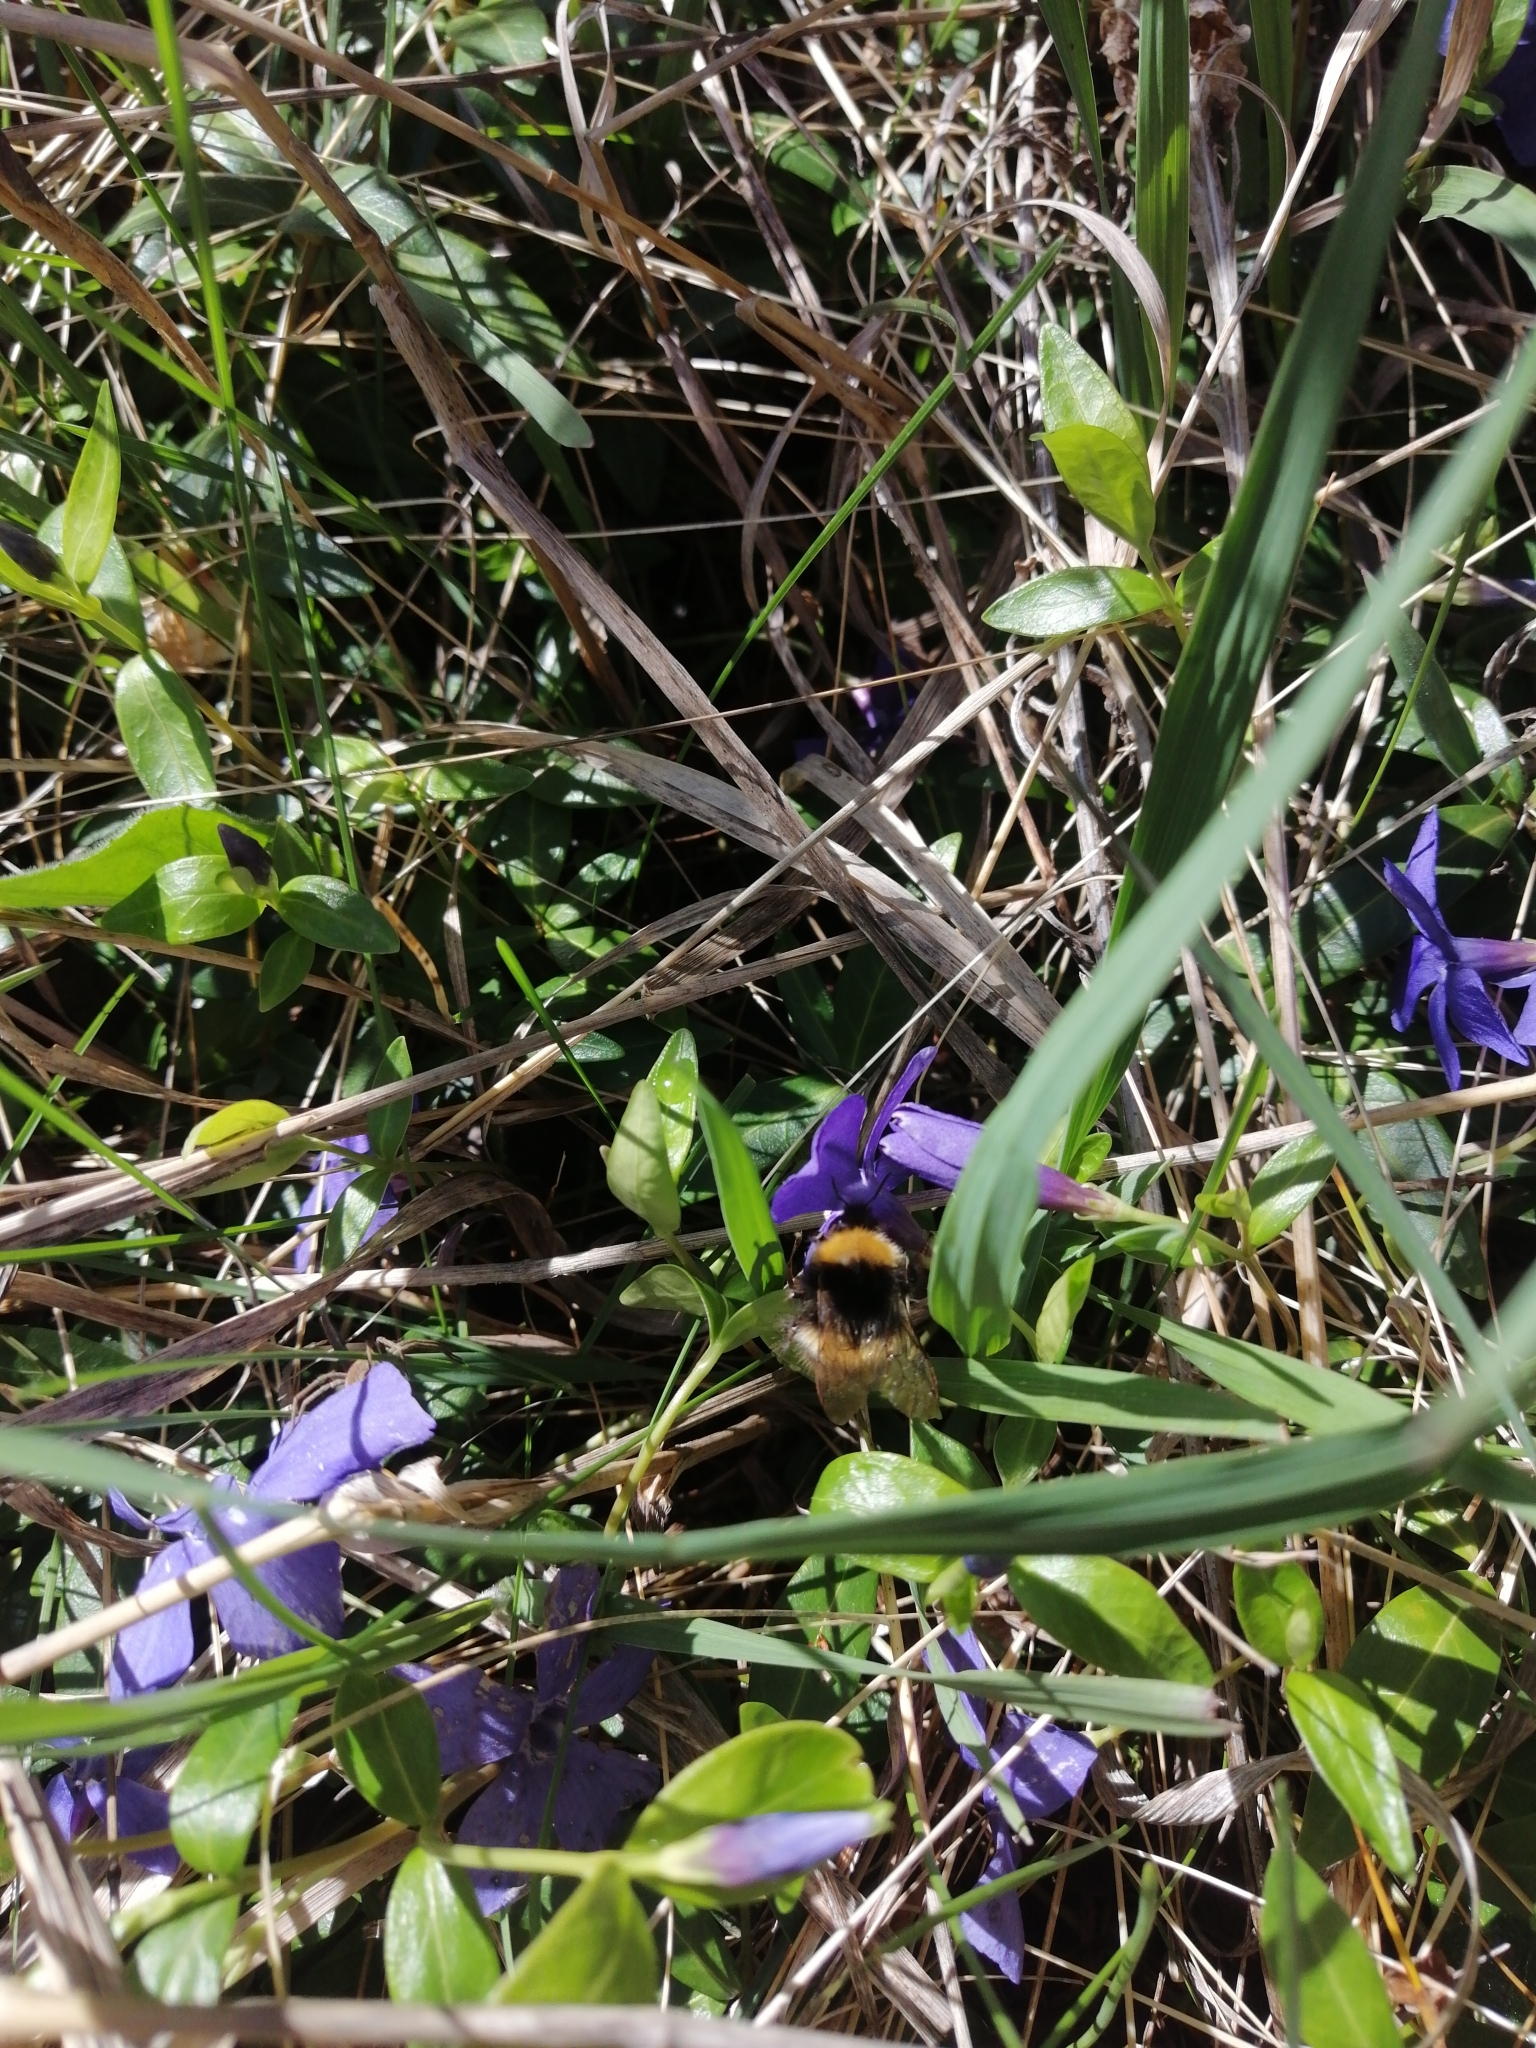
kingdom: Animalia
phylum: Arthropoda
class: Insecta
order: Hymenoptera
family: Apidae
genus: Bombus
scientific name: Bombus pratorum
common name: Early humble-bee
